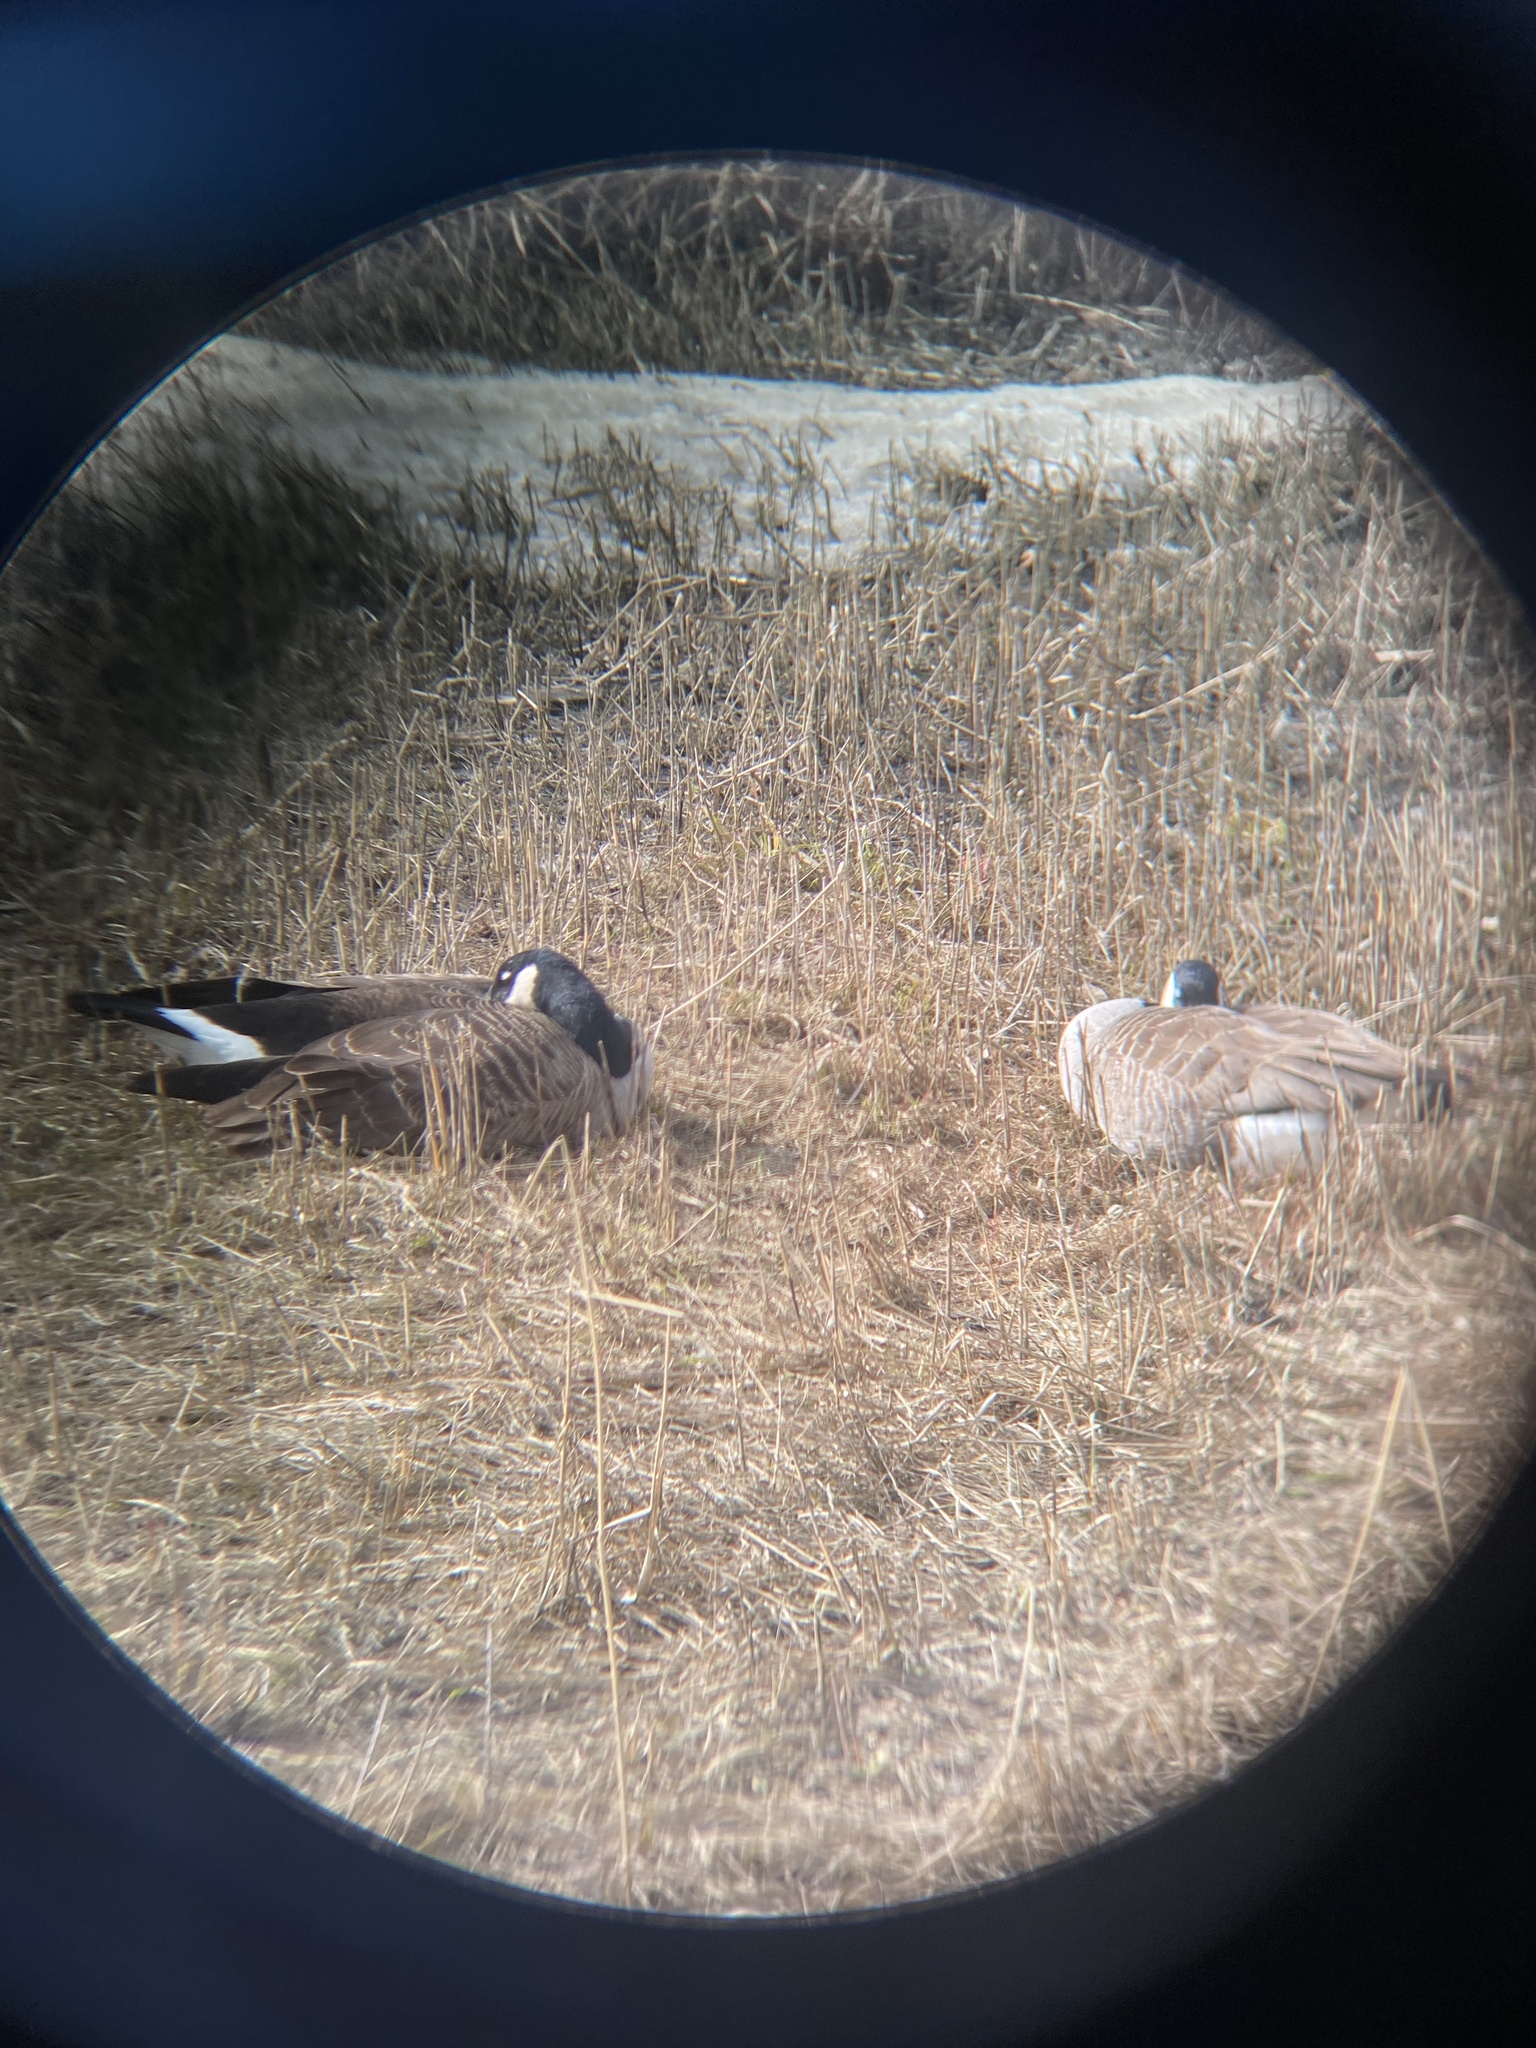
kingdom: Animalia
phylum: Chordata
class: Aves
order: Anseriformes
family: Anatidae
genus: Branta
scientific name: Branta canadensis
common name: Canada goose
